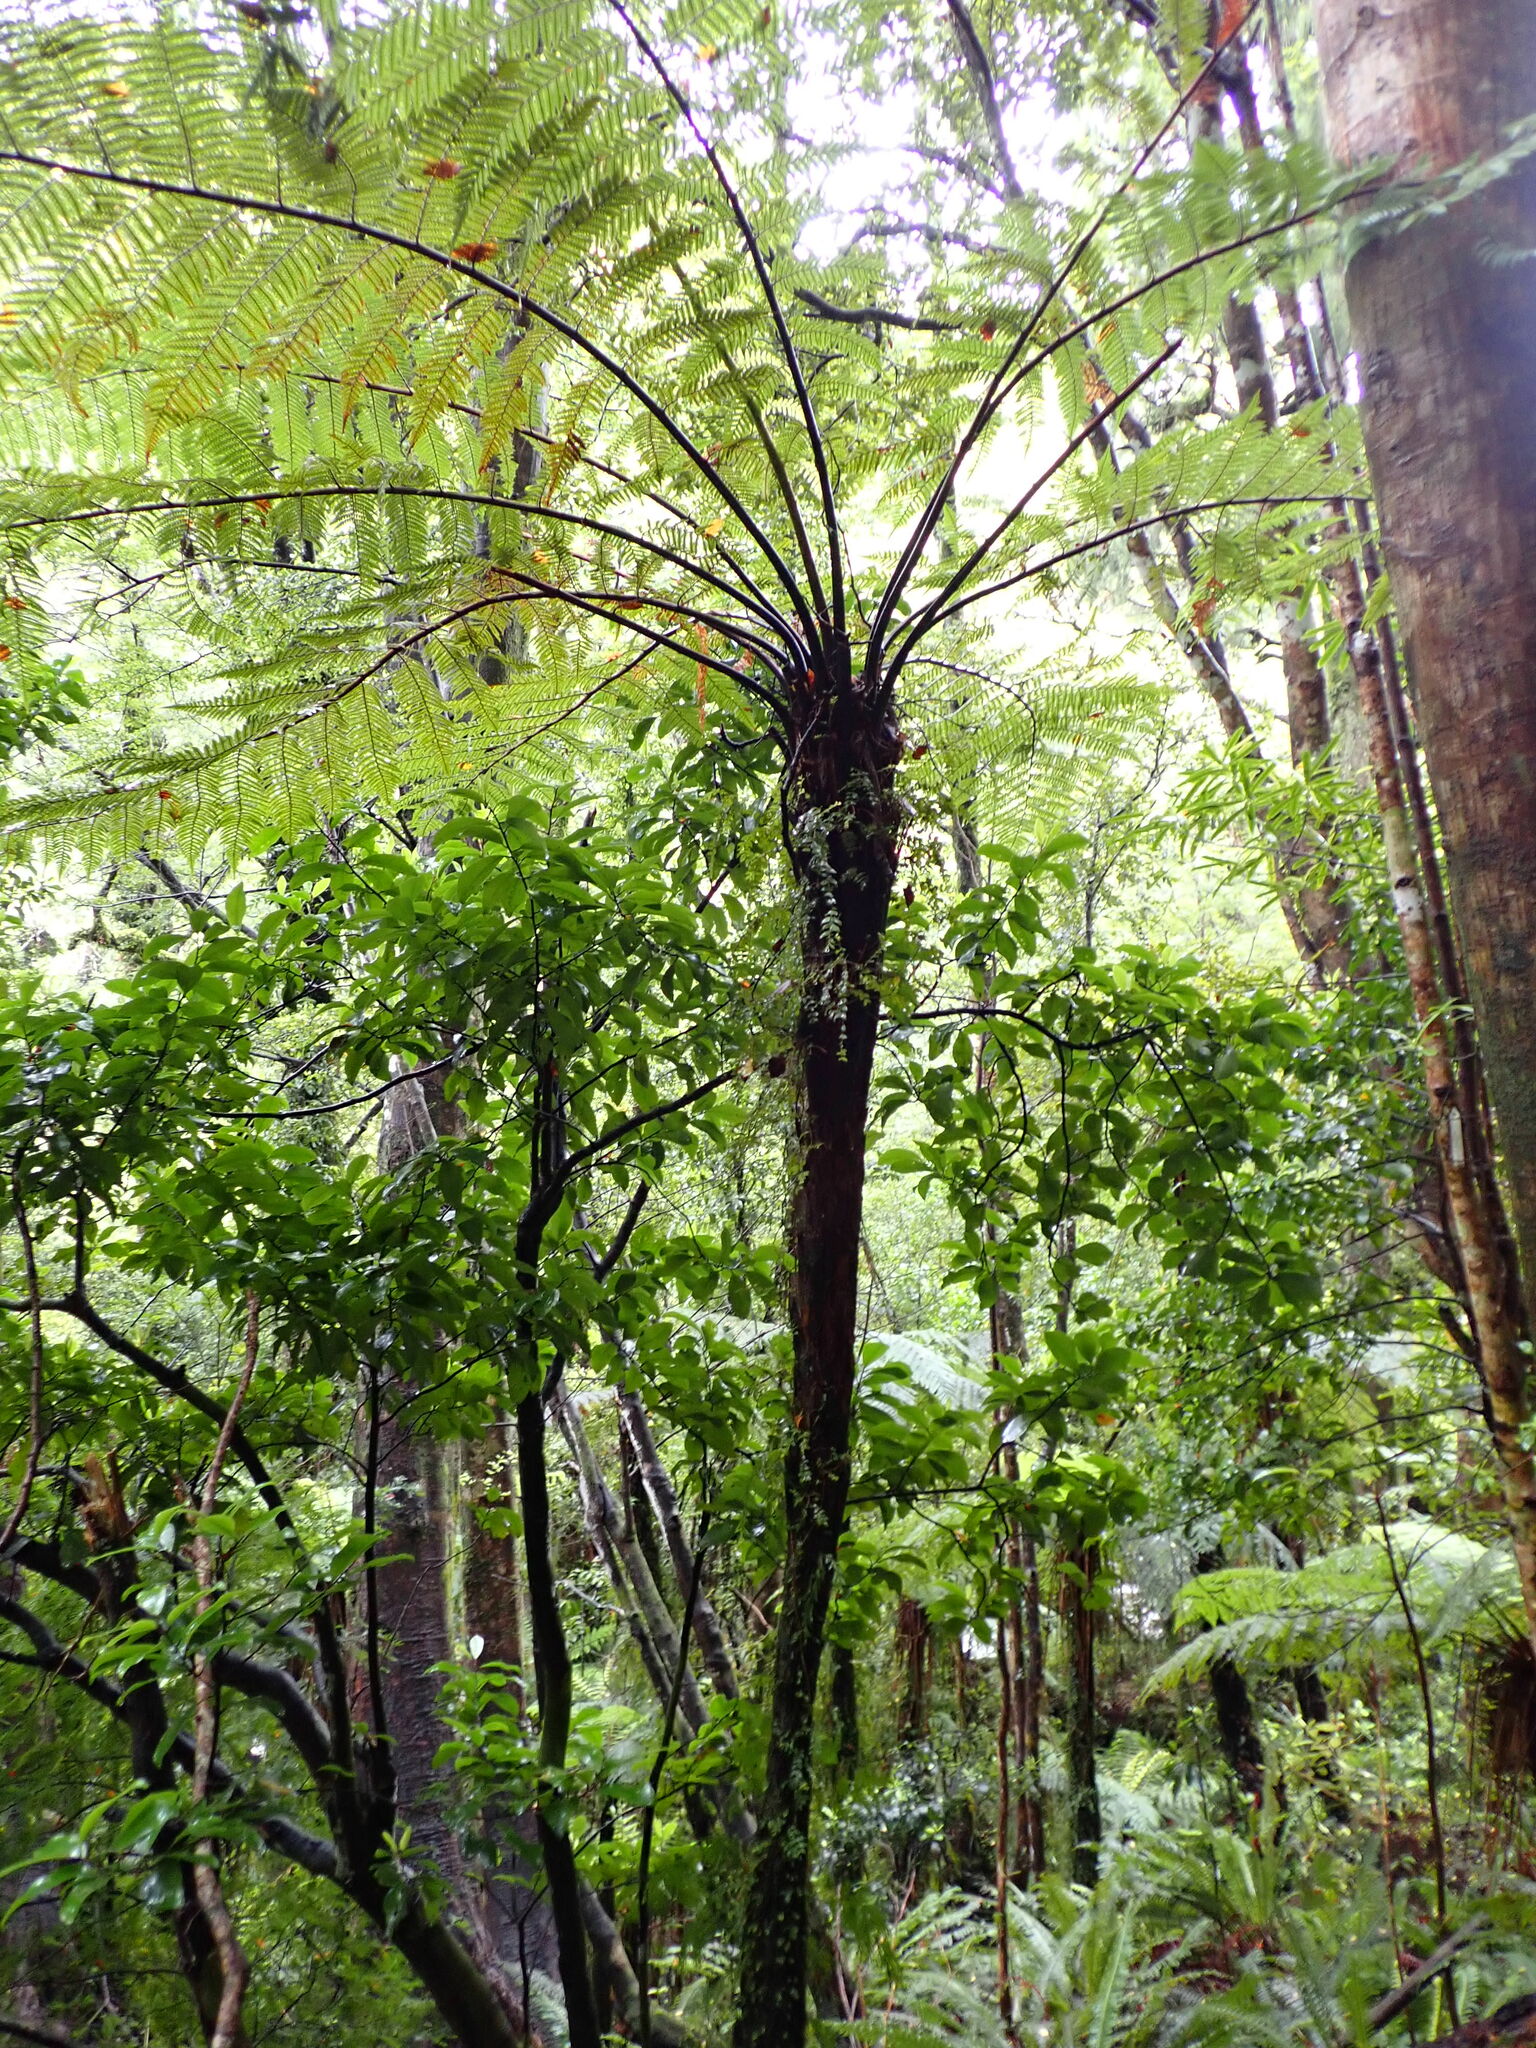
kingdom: Plantae
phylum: Tracheophyta
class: Polypodiopsida
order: Cyatheales
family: Cyatheaceae
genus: Cyathea
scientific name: Cyathea cunninghamii
